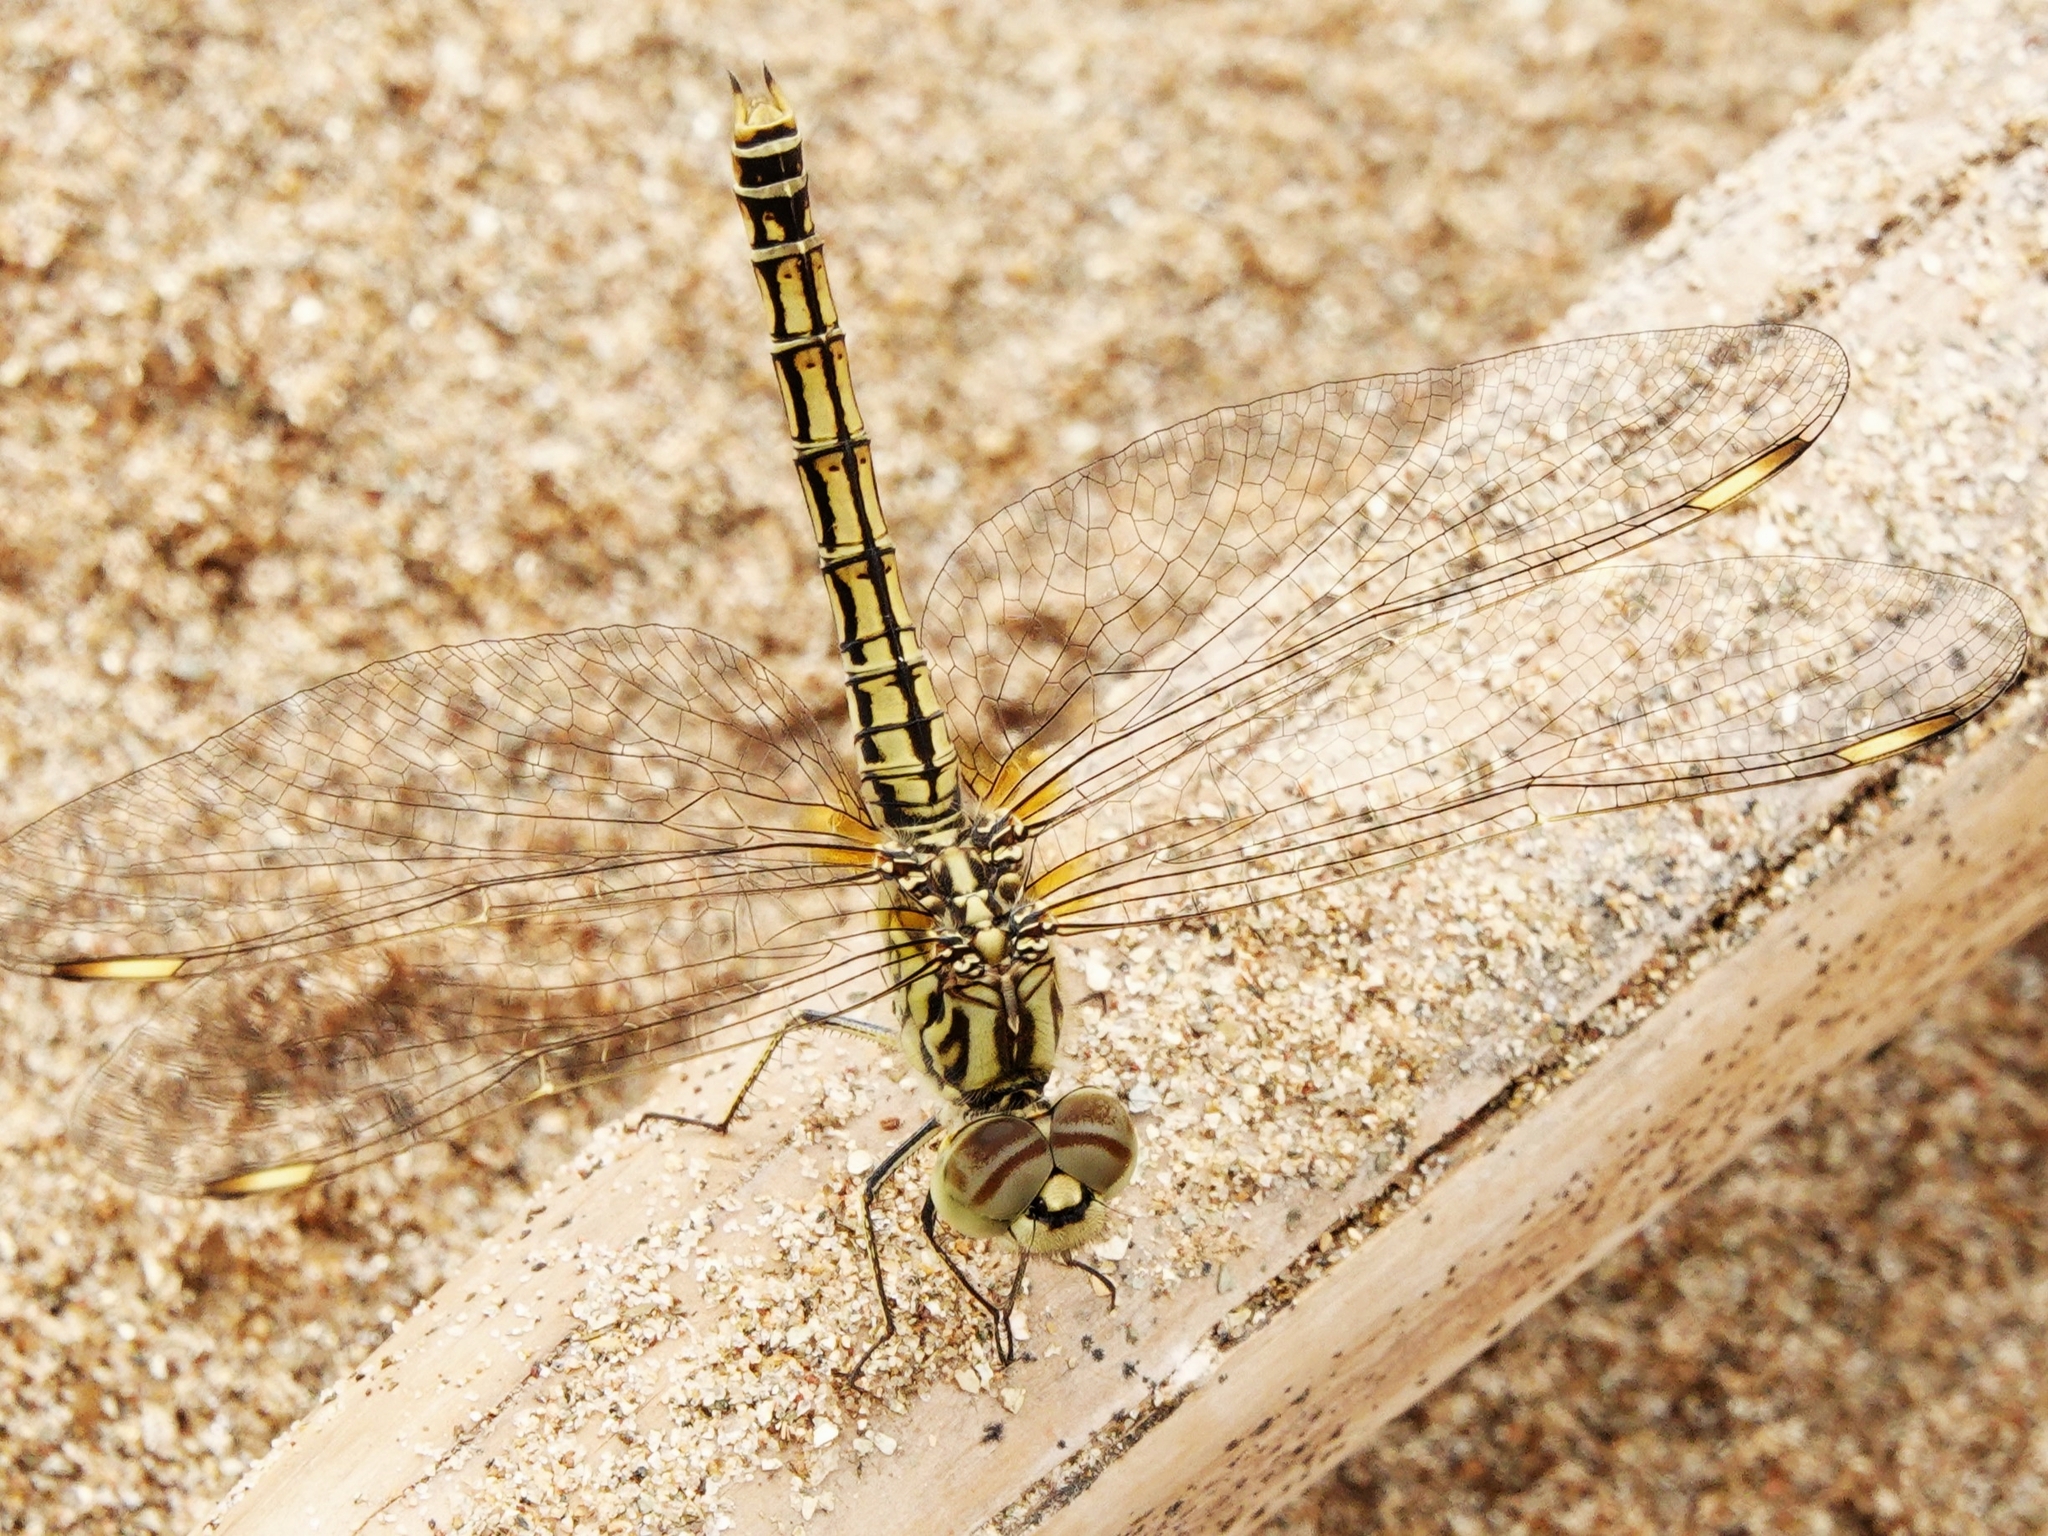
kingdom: Animalia
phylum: Arthropoda
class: Insecta
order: Odonata
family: Libellulidae
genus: Brachythemis
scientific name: Brachythemis leucosticta
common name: Banded groundling
